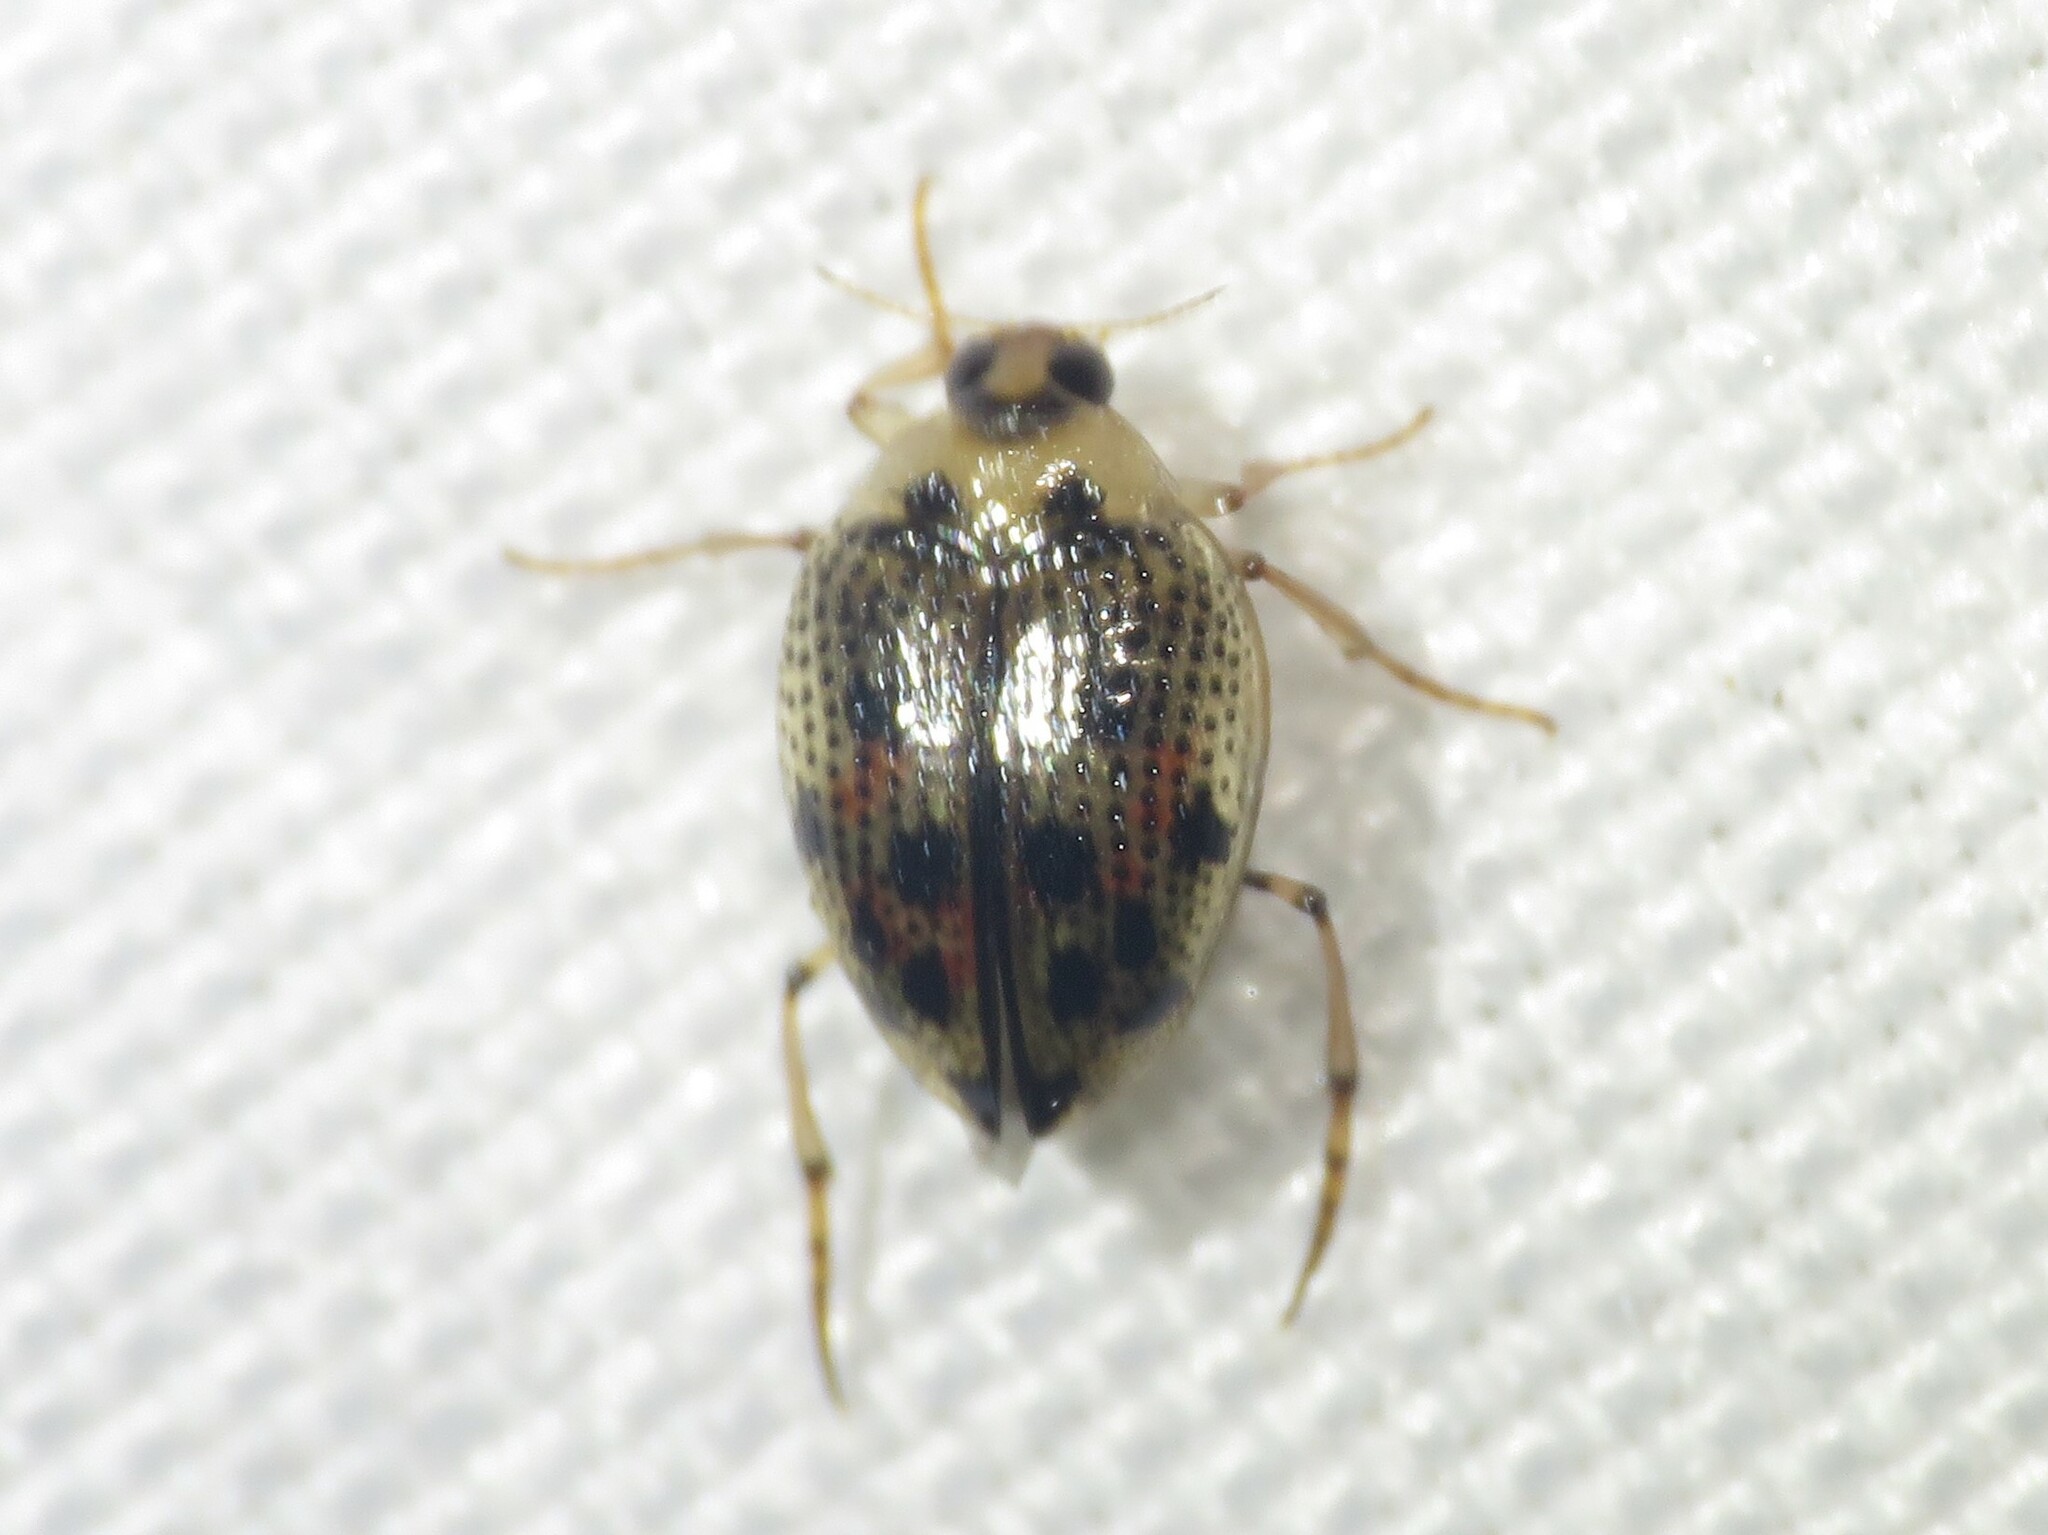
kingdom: Animalia
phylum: Arthropoda
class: Insecta
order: Coleoptera
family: Haliplidae
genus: Peltodytes
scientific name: Peltodytes edentulus
